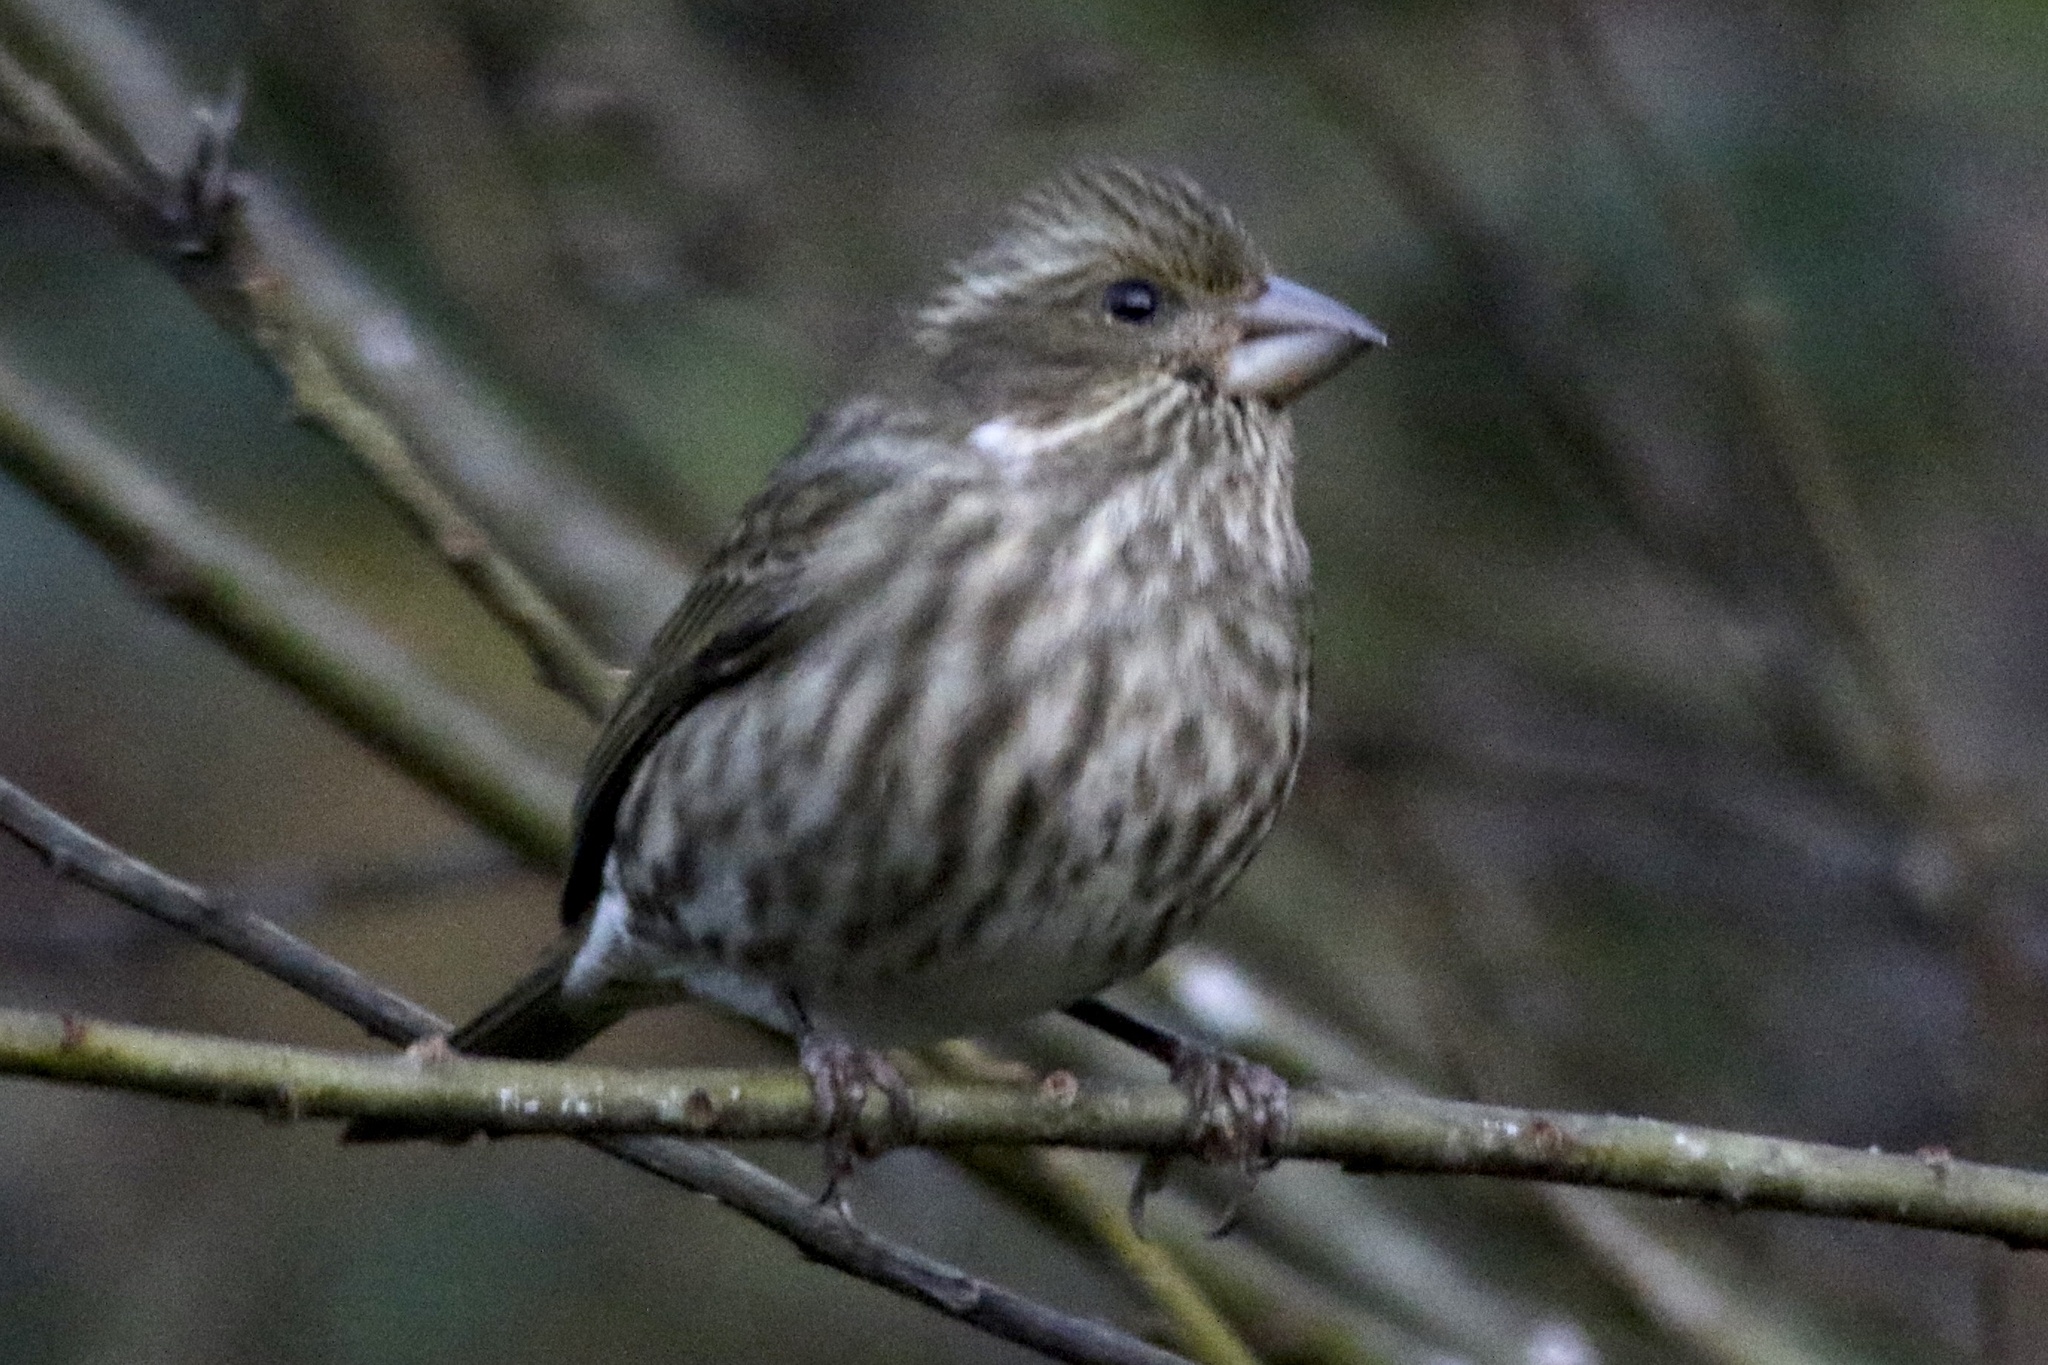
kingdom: Animalia
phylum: Chordata
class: Aves
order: Passeriformes
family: Fringillidae
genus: Haemorhous
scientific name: Haemorhous purpureus
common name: Purple finch
